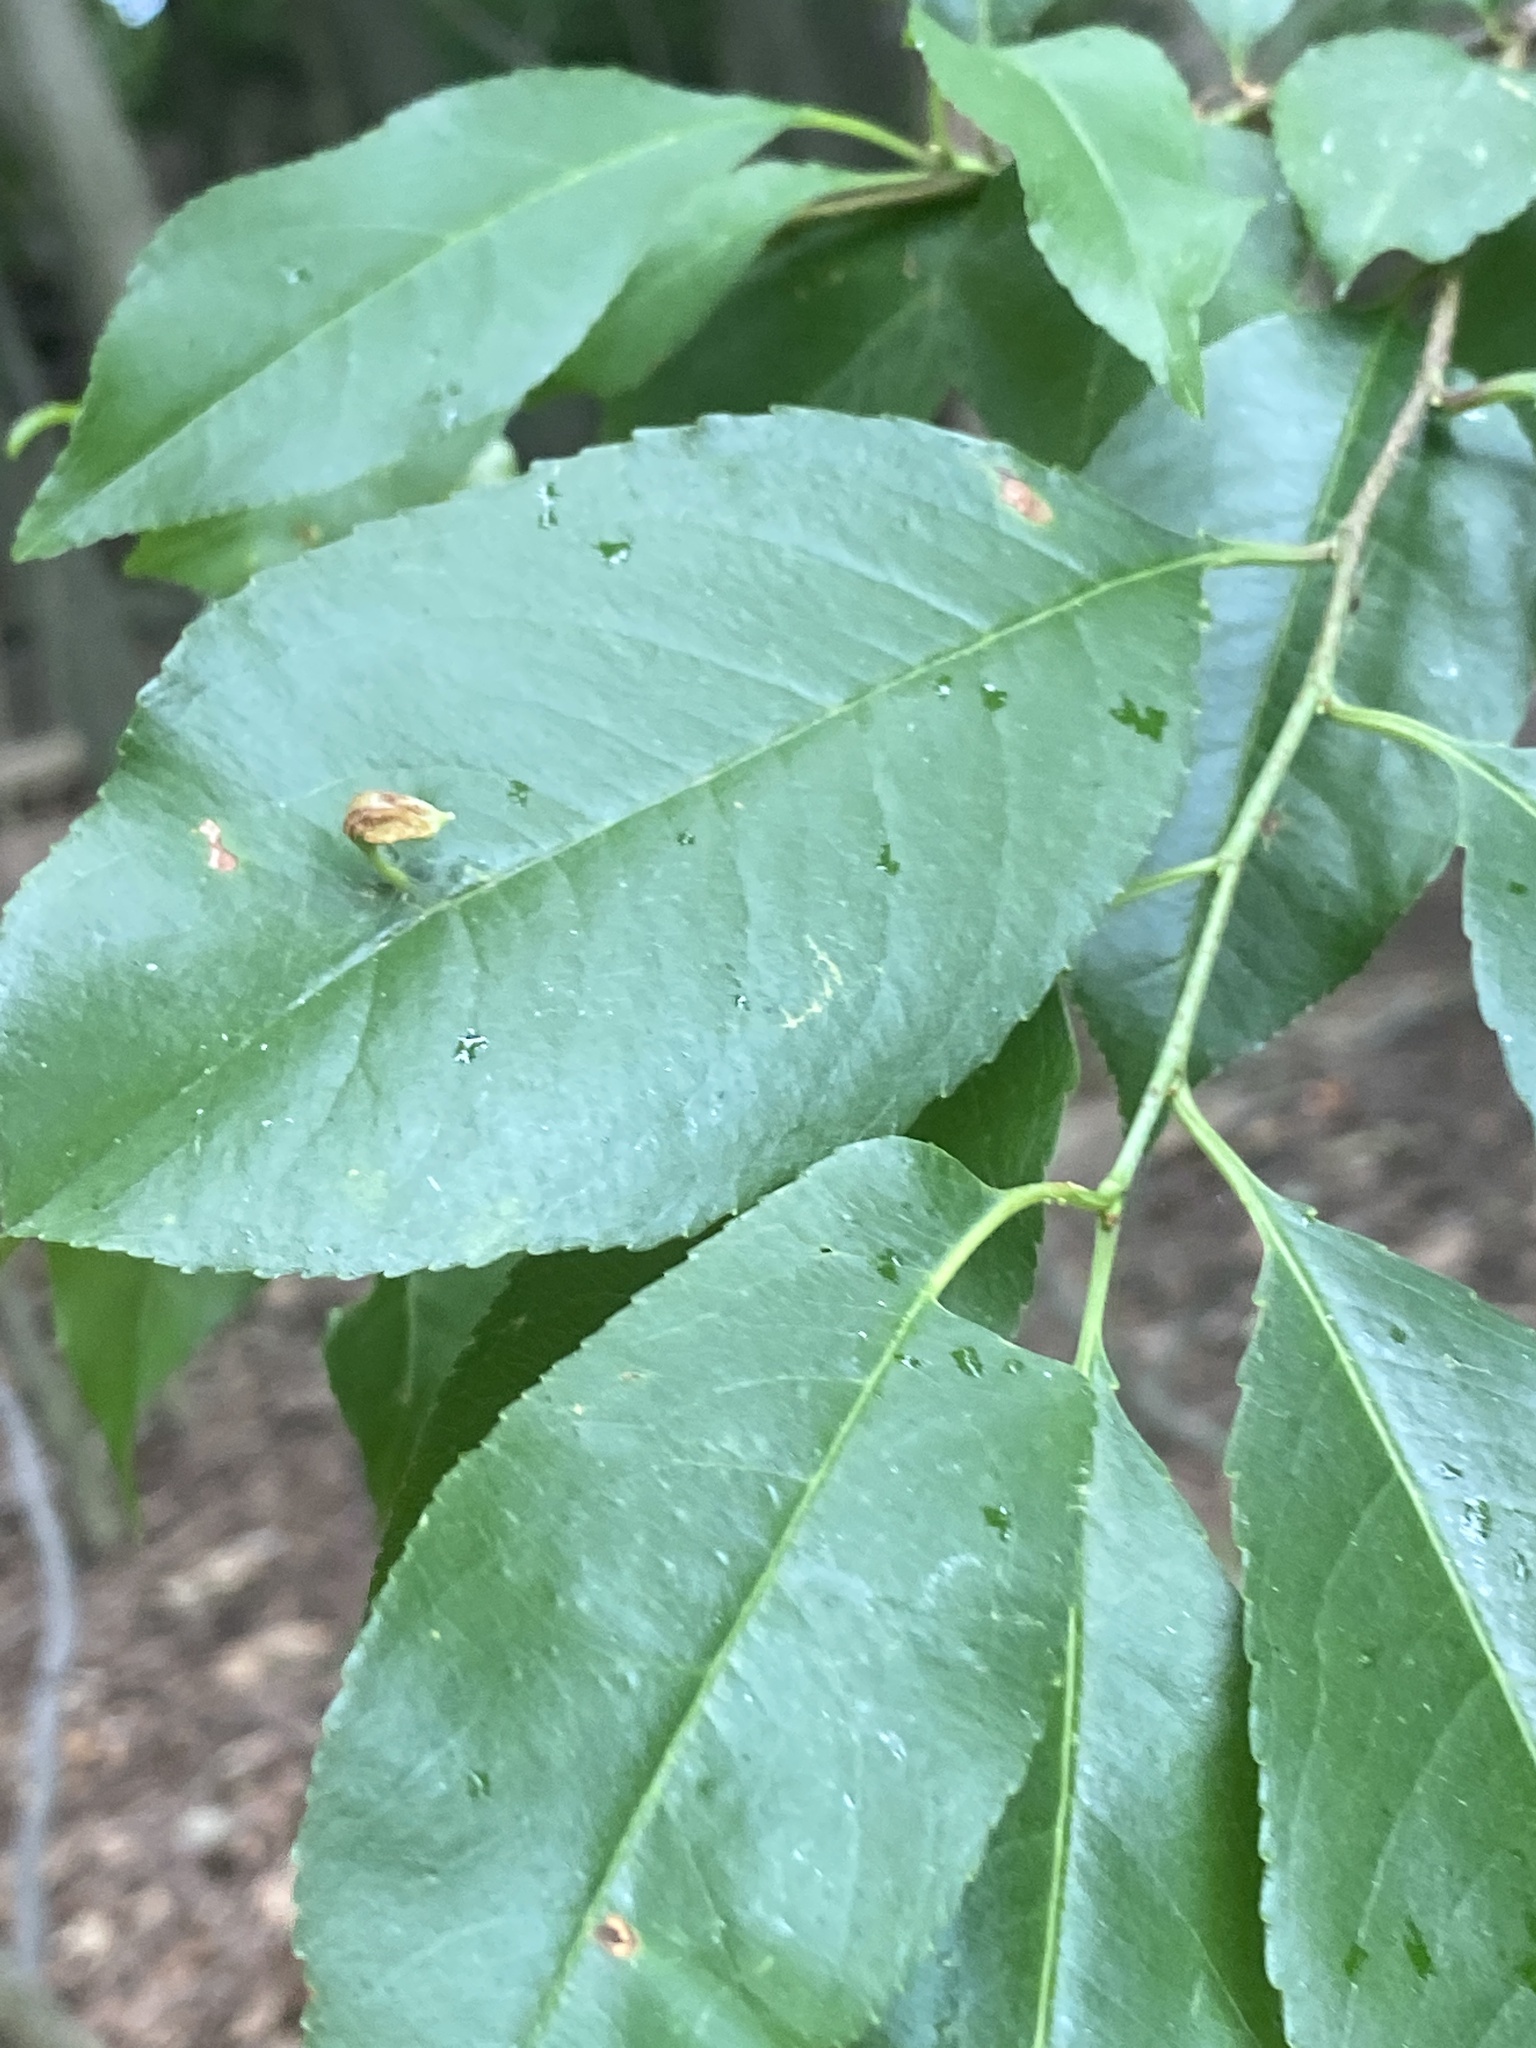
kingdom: Animalia
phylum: Arthropoda
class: Arachnida
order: Trombidiformes
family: Eriophyidae
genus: Eriophyes
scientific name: Eriophyes
